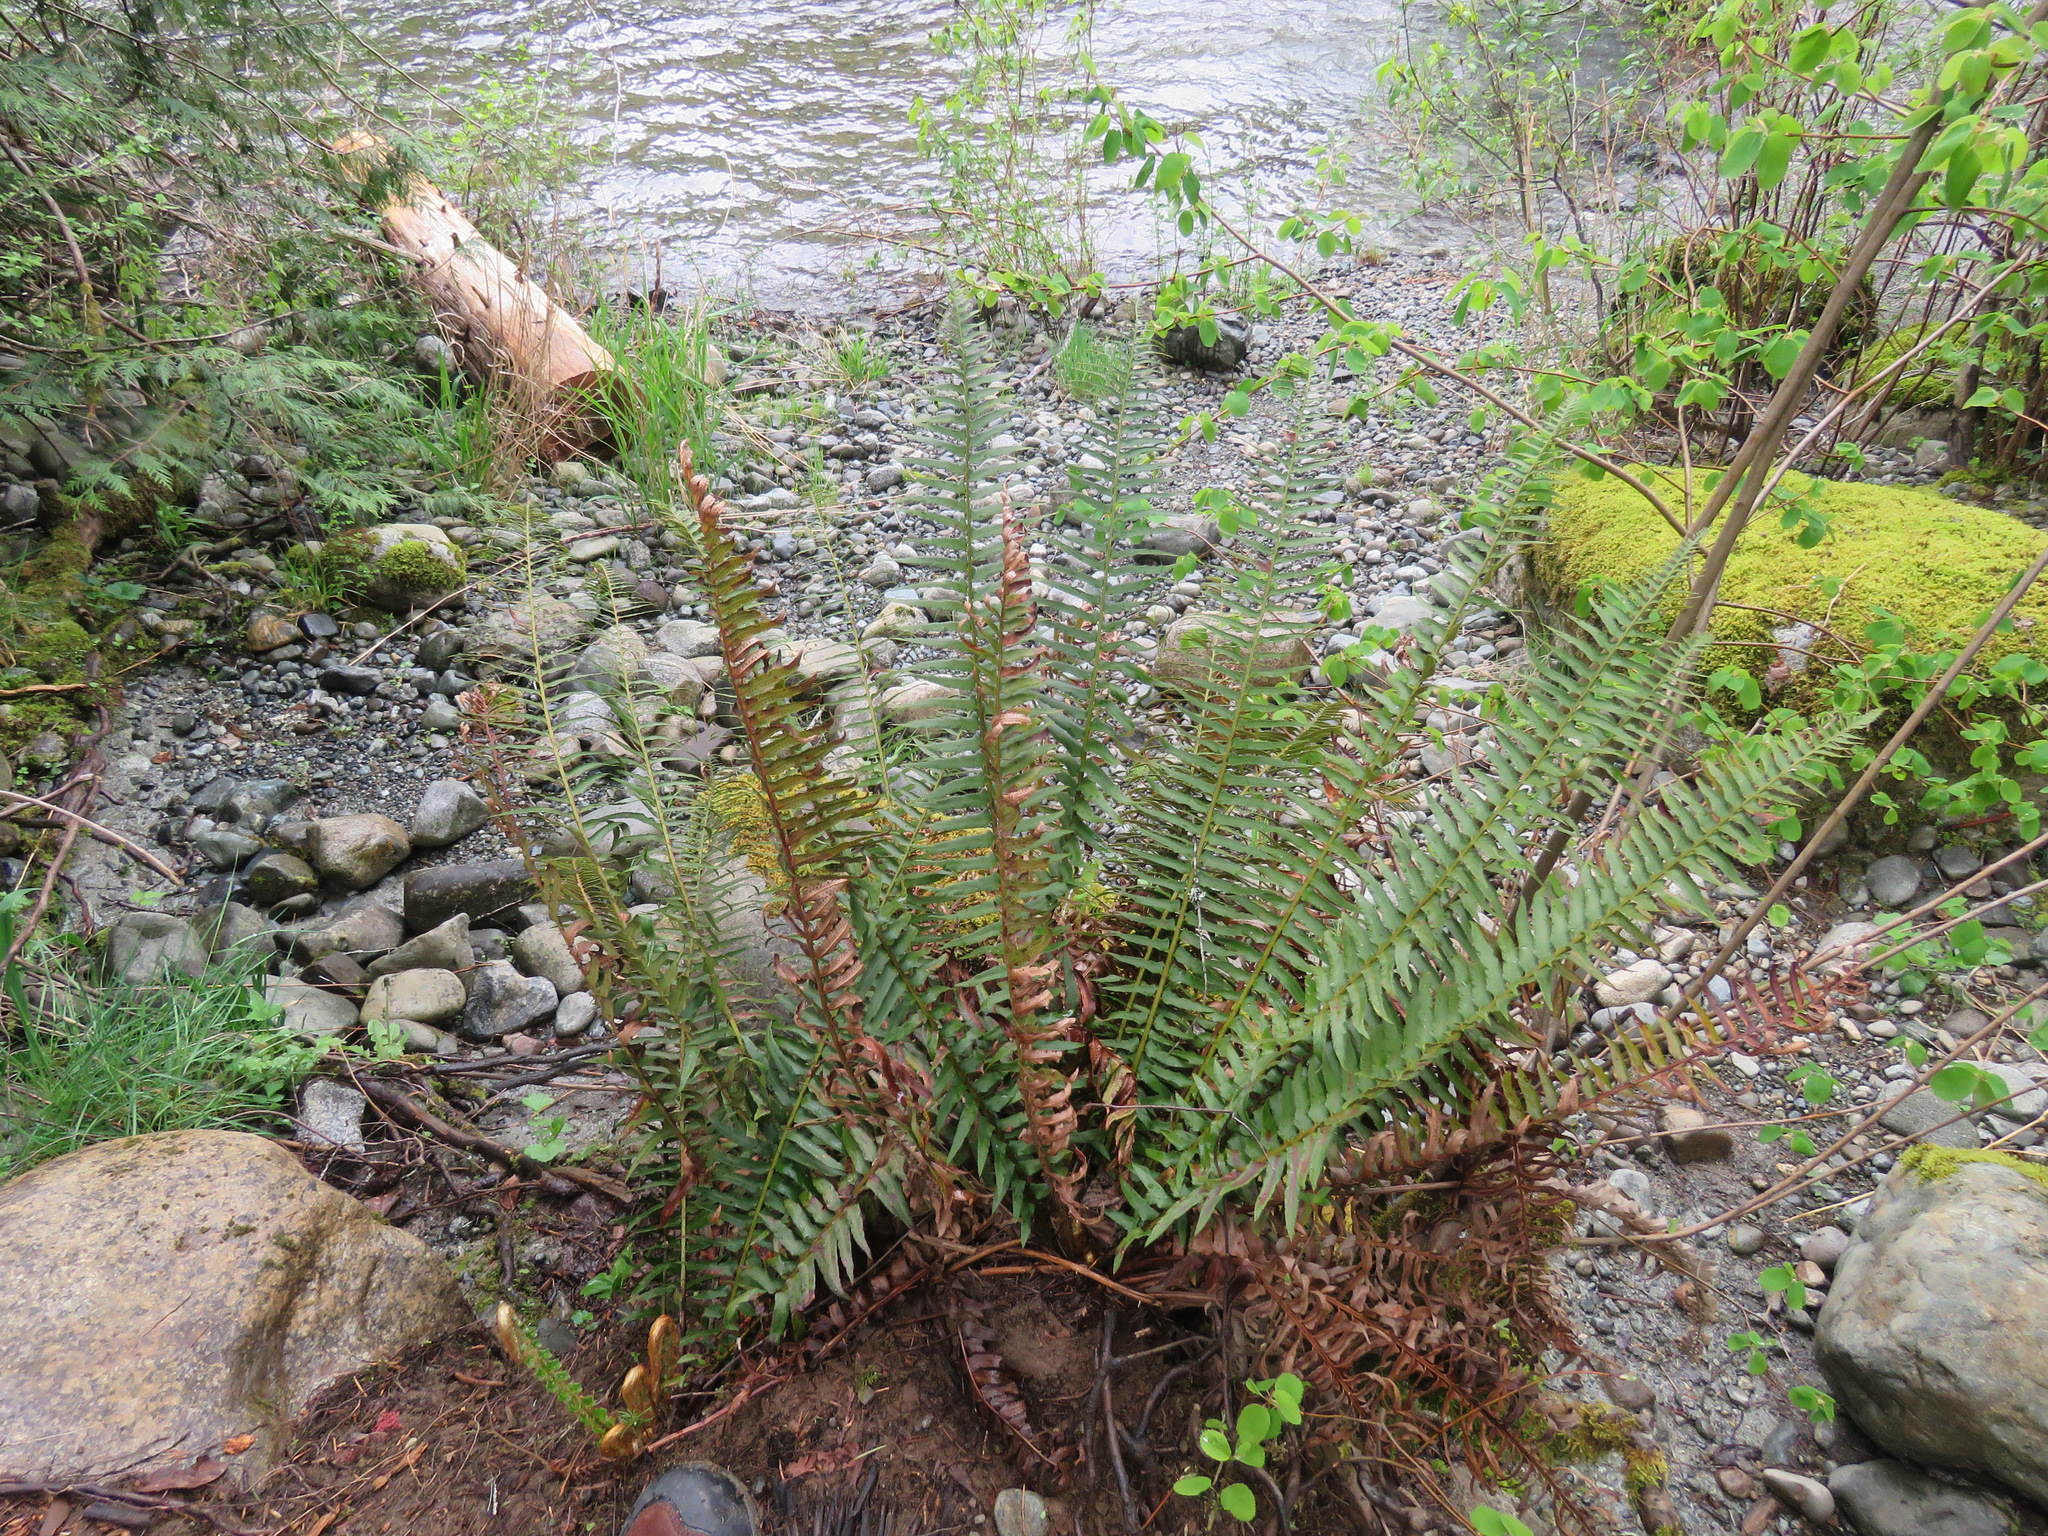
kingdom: Plantae
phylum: Tracheophyta
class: Polypodiopsida
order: Polypodiales
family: Dryopteridaceae
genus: Polystichum
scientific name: Polystichum munitum
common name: Western sword-fern
